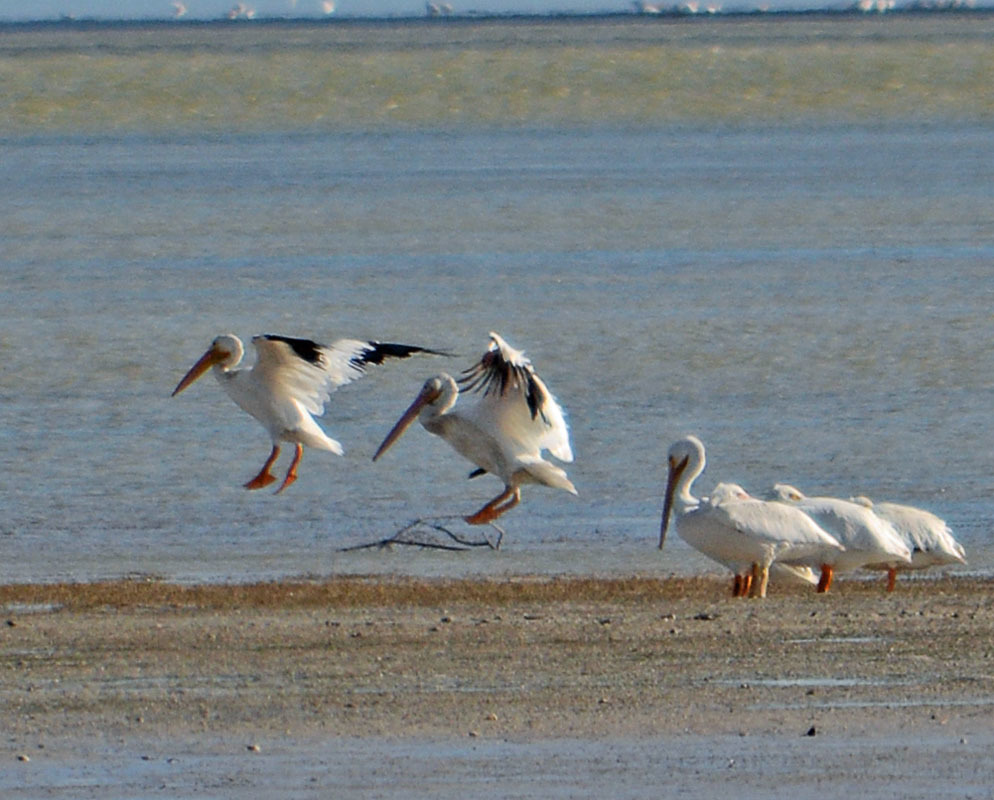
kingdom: Animalia
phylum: Chordata
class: Aves
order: Pelecaniformes
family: Pelecanidae
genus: Pelecanus
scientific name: Pelecanus erythrorhynchos
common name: American white pelican
